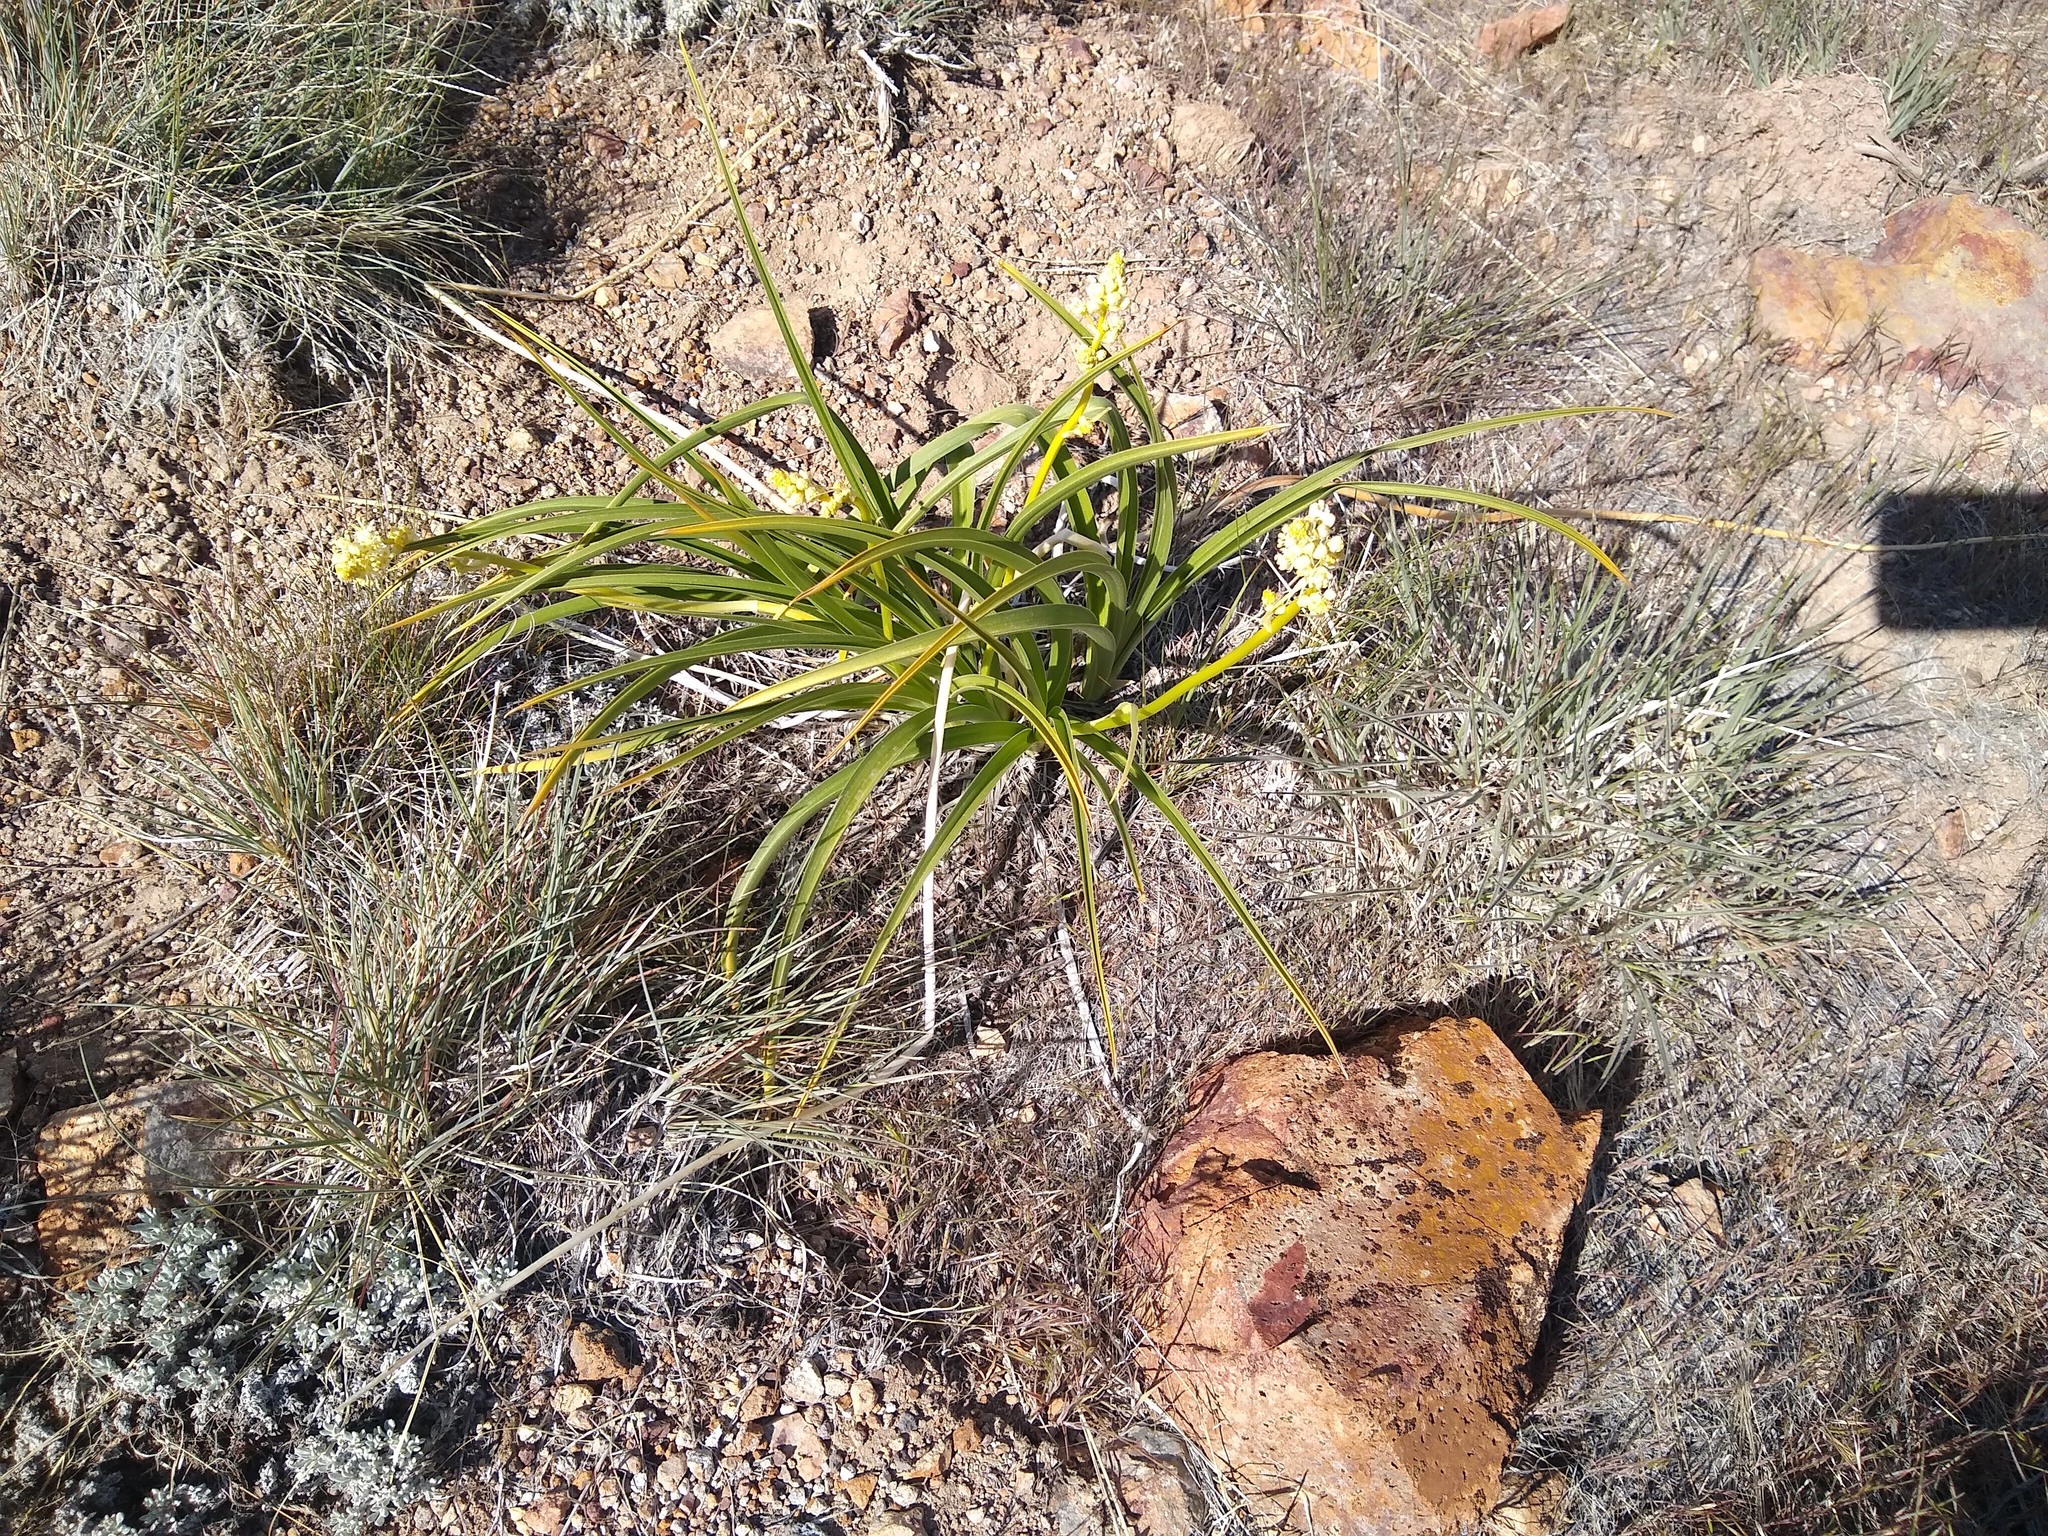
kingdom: Plantae
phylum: Tracheophyta
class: Liliopsida
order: Liliales
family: Melanthiaceae
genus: Toxicoscordion
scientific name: Toxicoscordion paniculatum
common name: Foothill death camas
